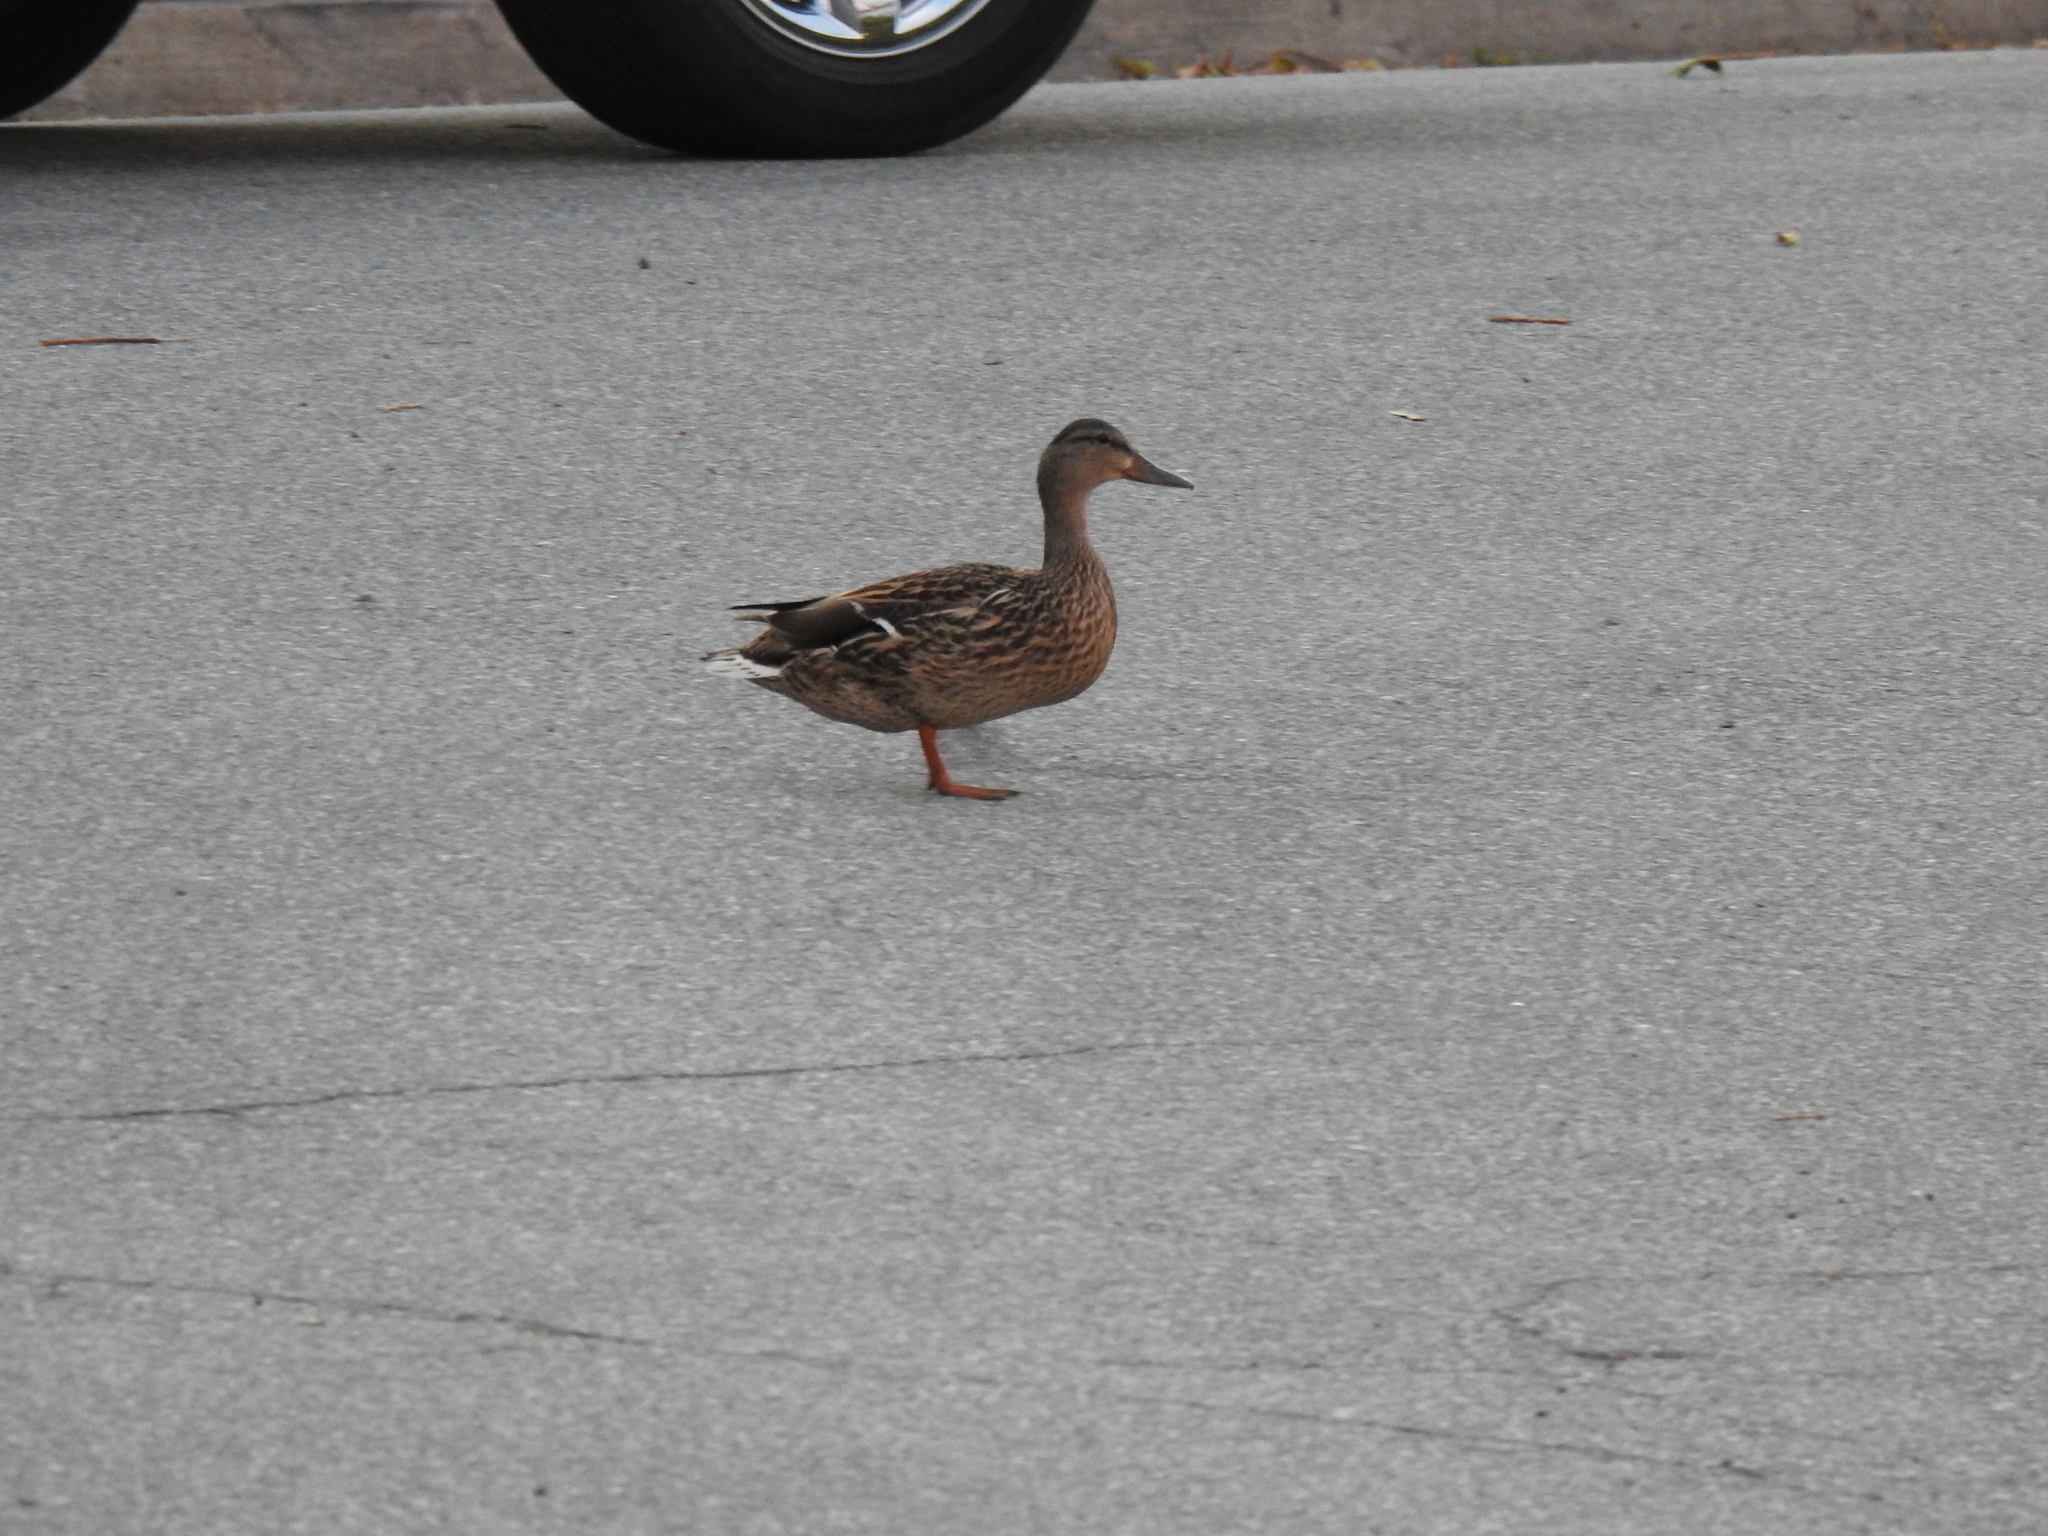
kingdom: Animalia
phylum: Chordata
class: Aves
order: Anseriformes
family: Anatidae
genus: Anas
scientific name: Anas platyrhynchos
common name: Mallard
